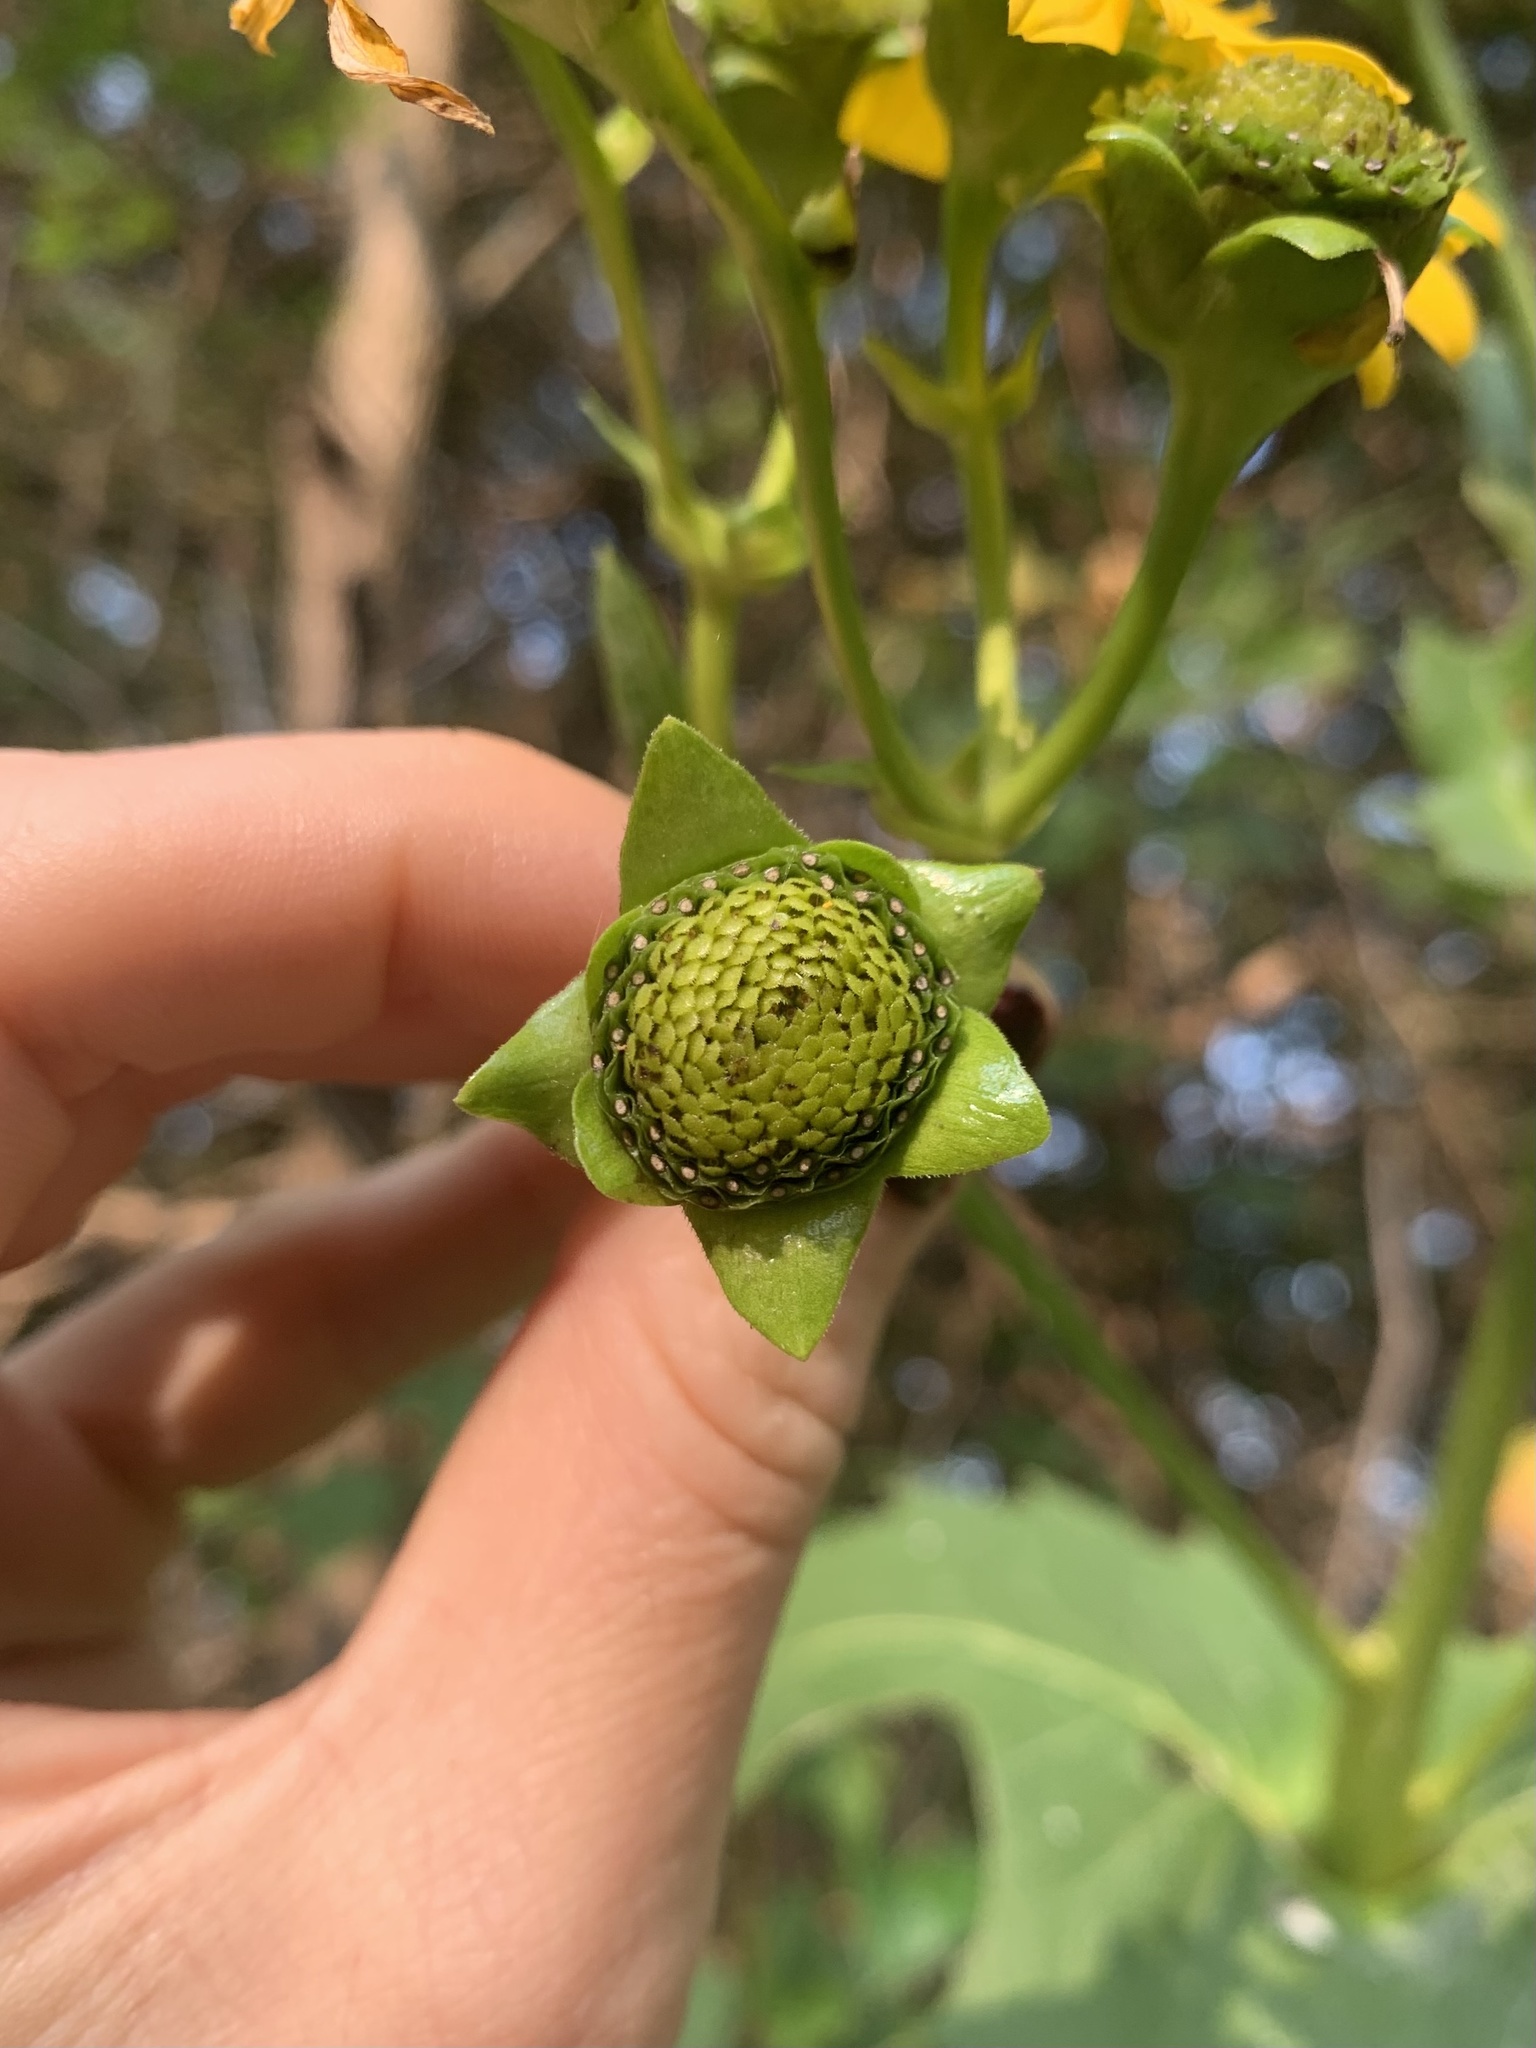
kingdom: Plantae
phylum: Tracheophyta
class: Magnoliopsida
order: Asterales
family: Asteraceae
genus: Silphium
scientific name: Silphium perfoliatum
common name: Cup-plant
